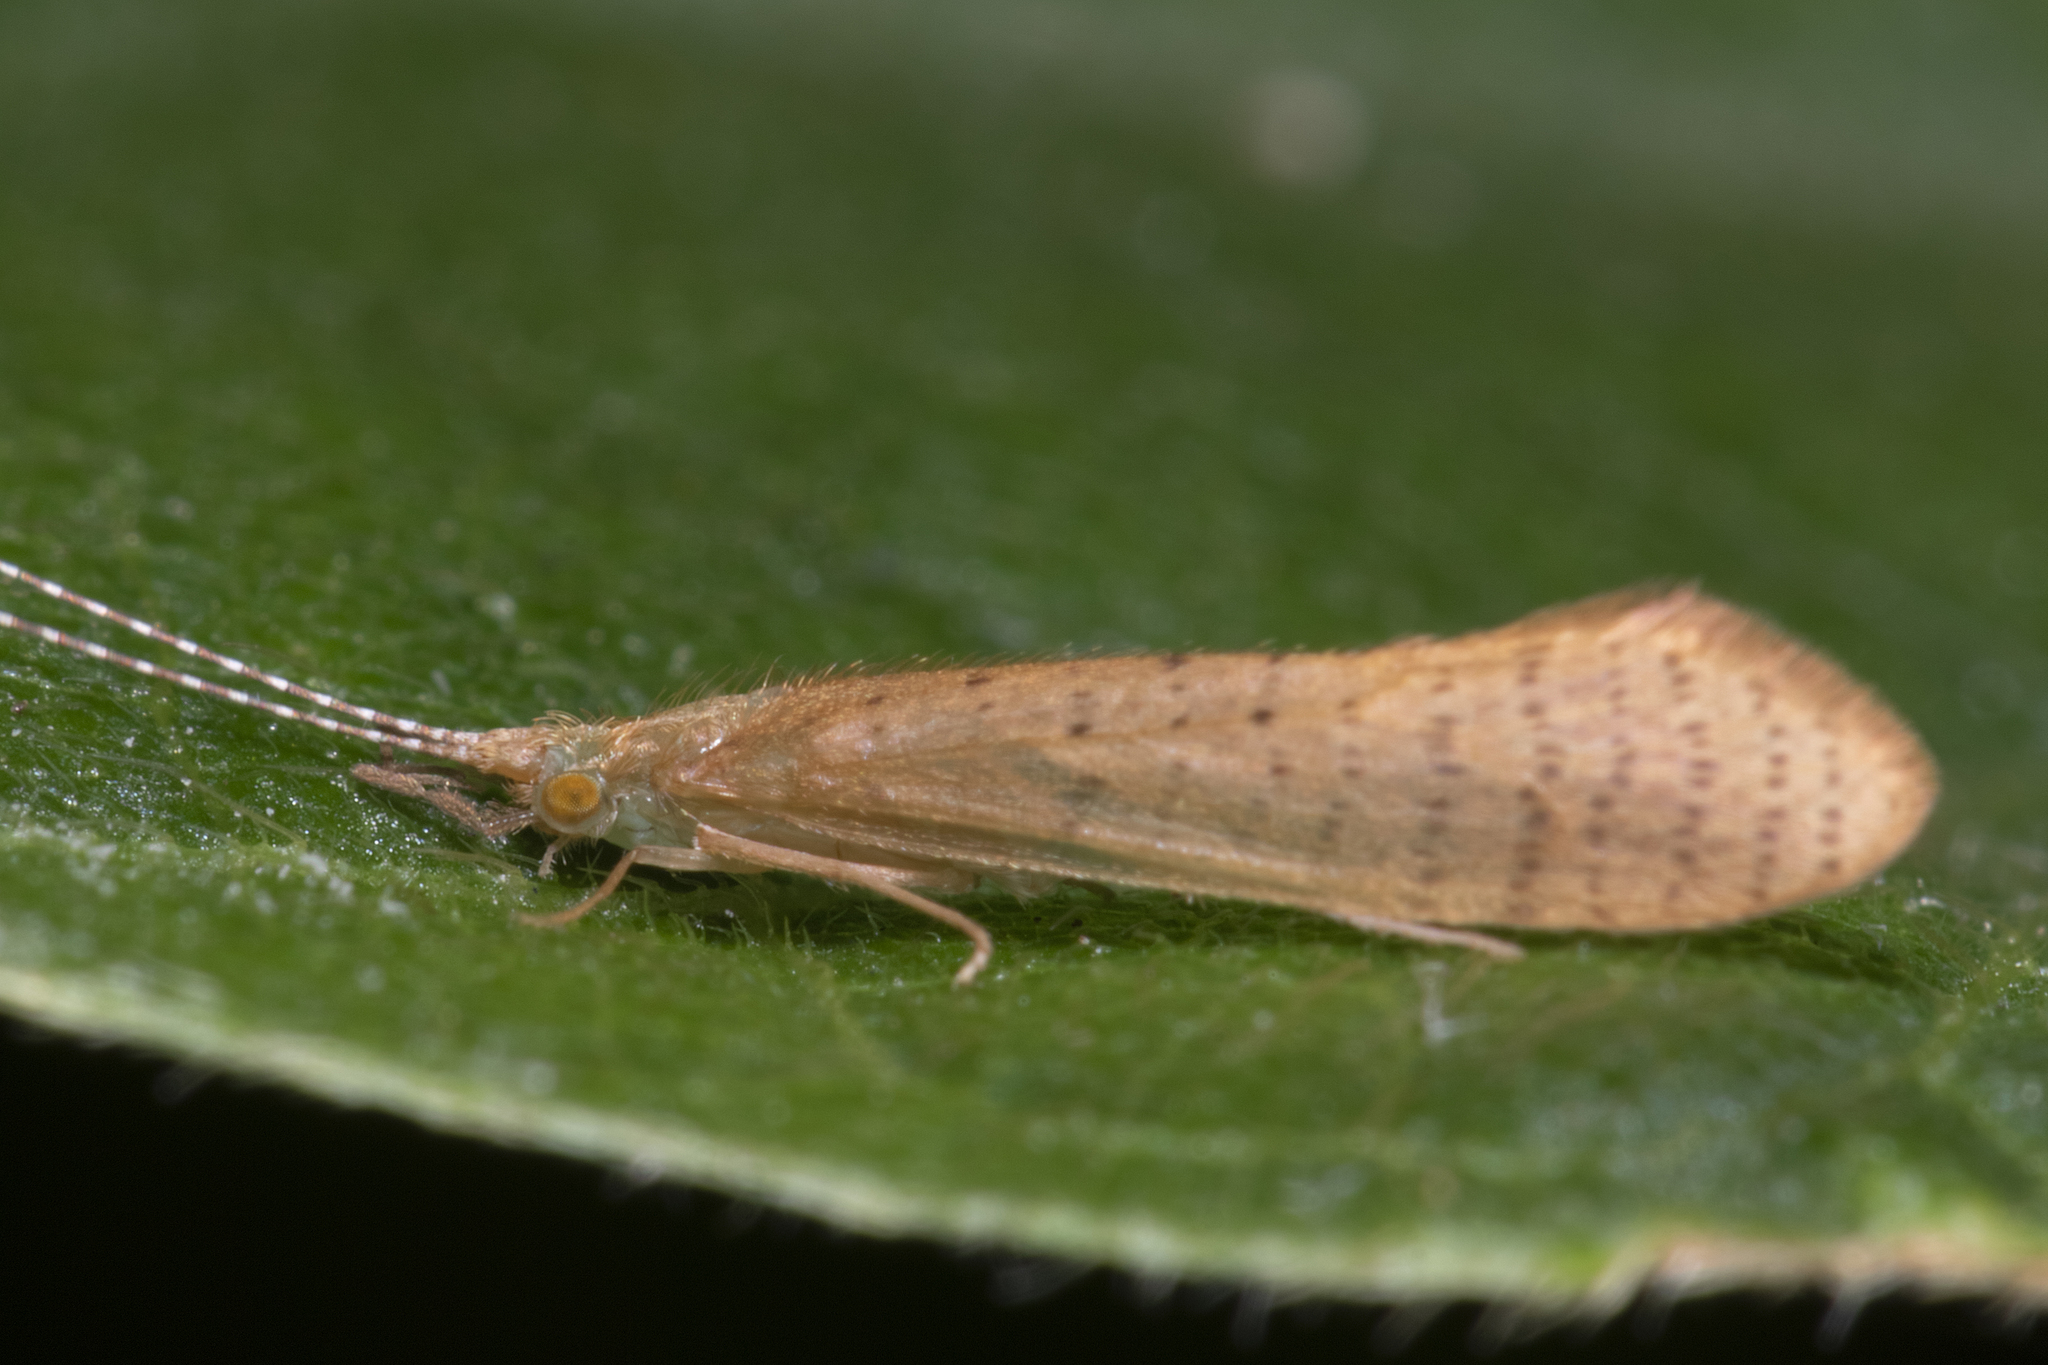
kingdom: Animalia
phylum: Arthropoda
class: Insecta
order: Trichoptera
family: Leptoceridae
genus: Nectopsyche
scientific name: Nectopsyche muhni
